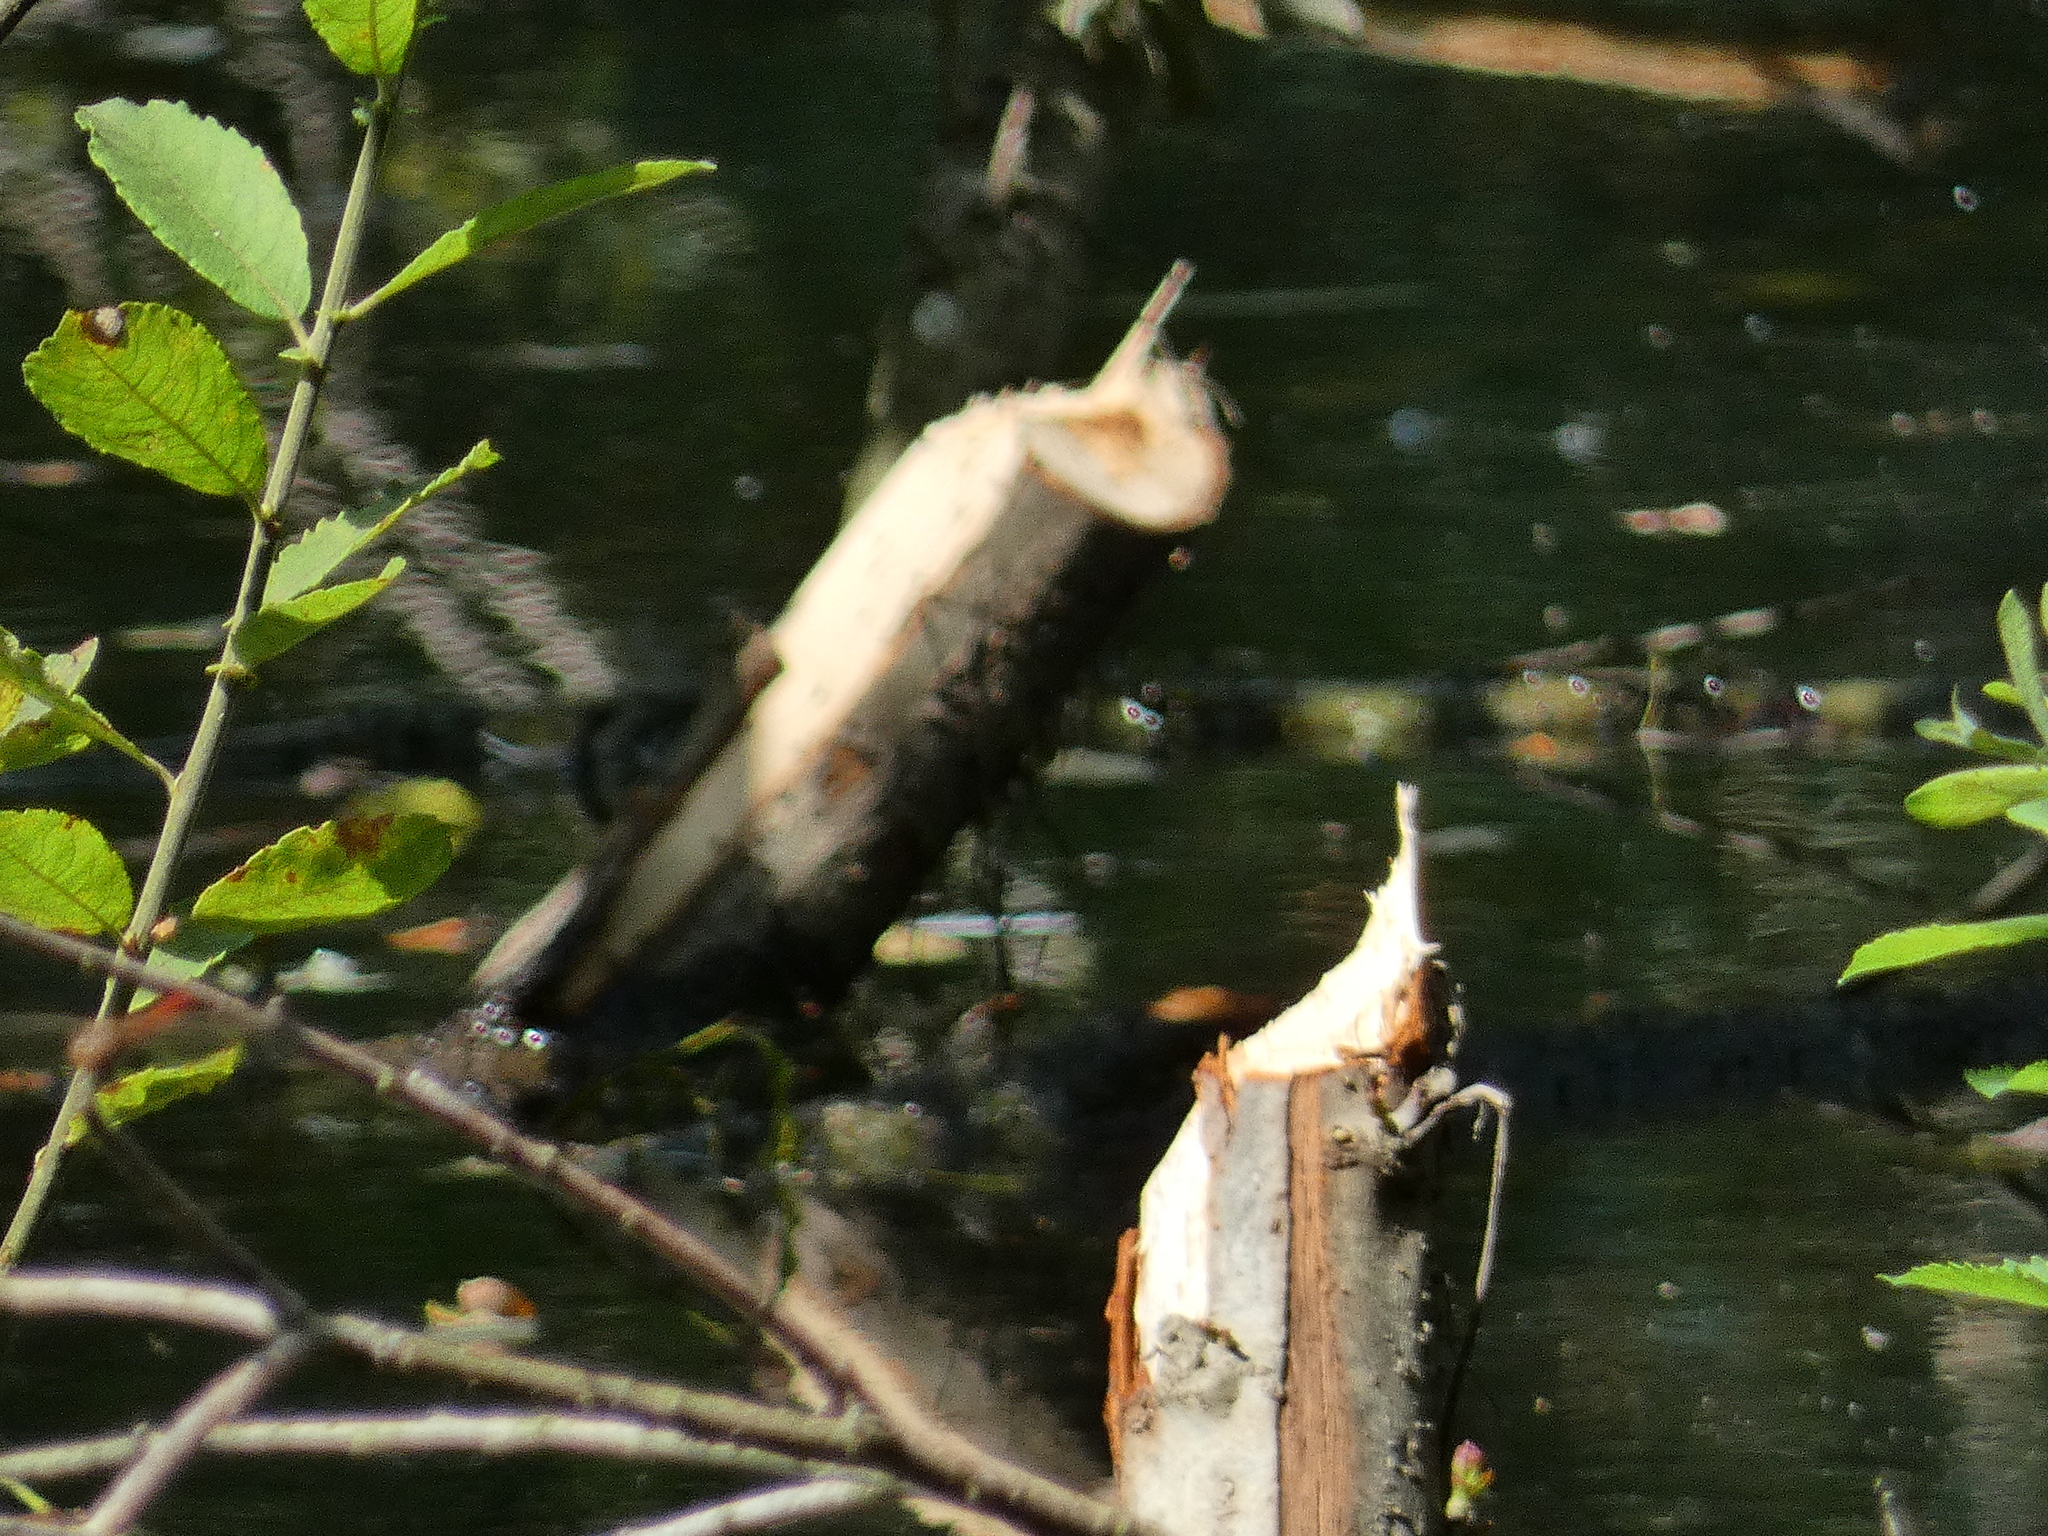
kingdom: Animalia
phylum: Chordata
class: Mammalia
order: Rodentia
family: Castoridae
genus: Castor
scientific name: Castor fiber
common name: Eurasian beaver
